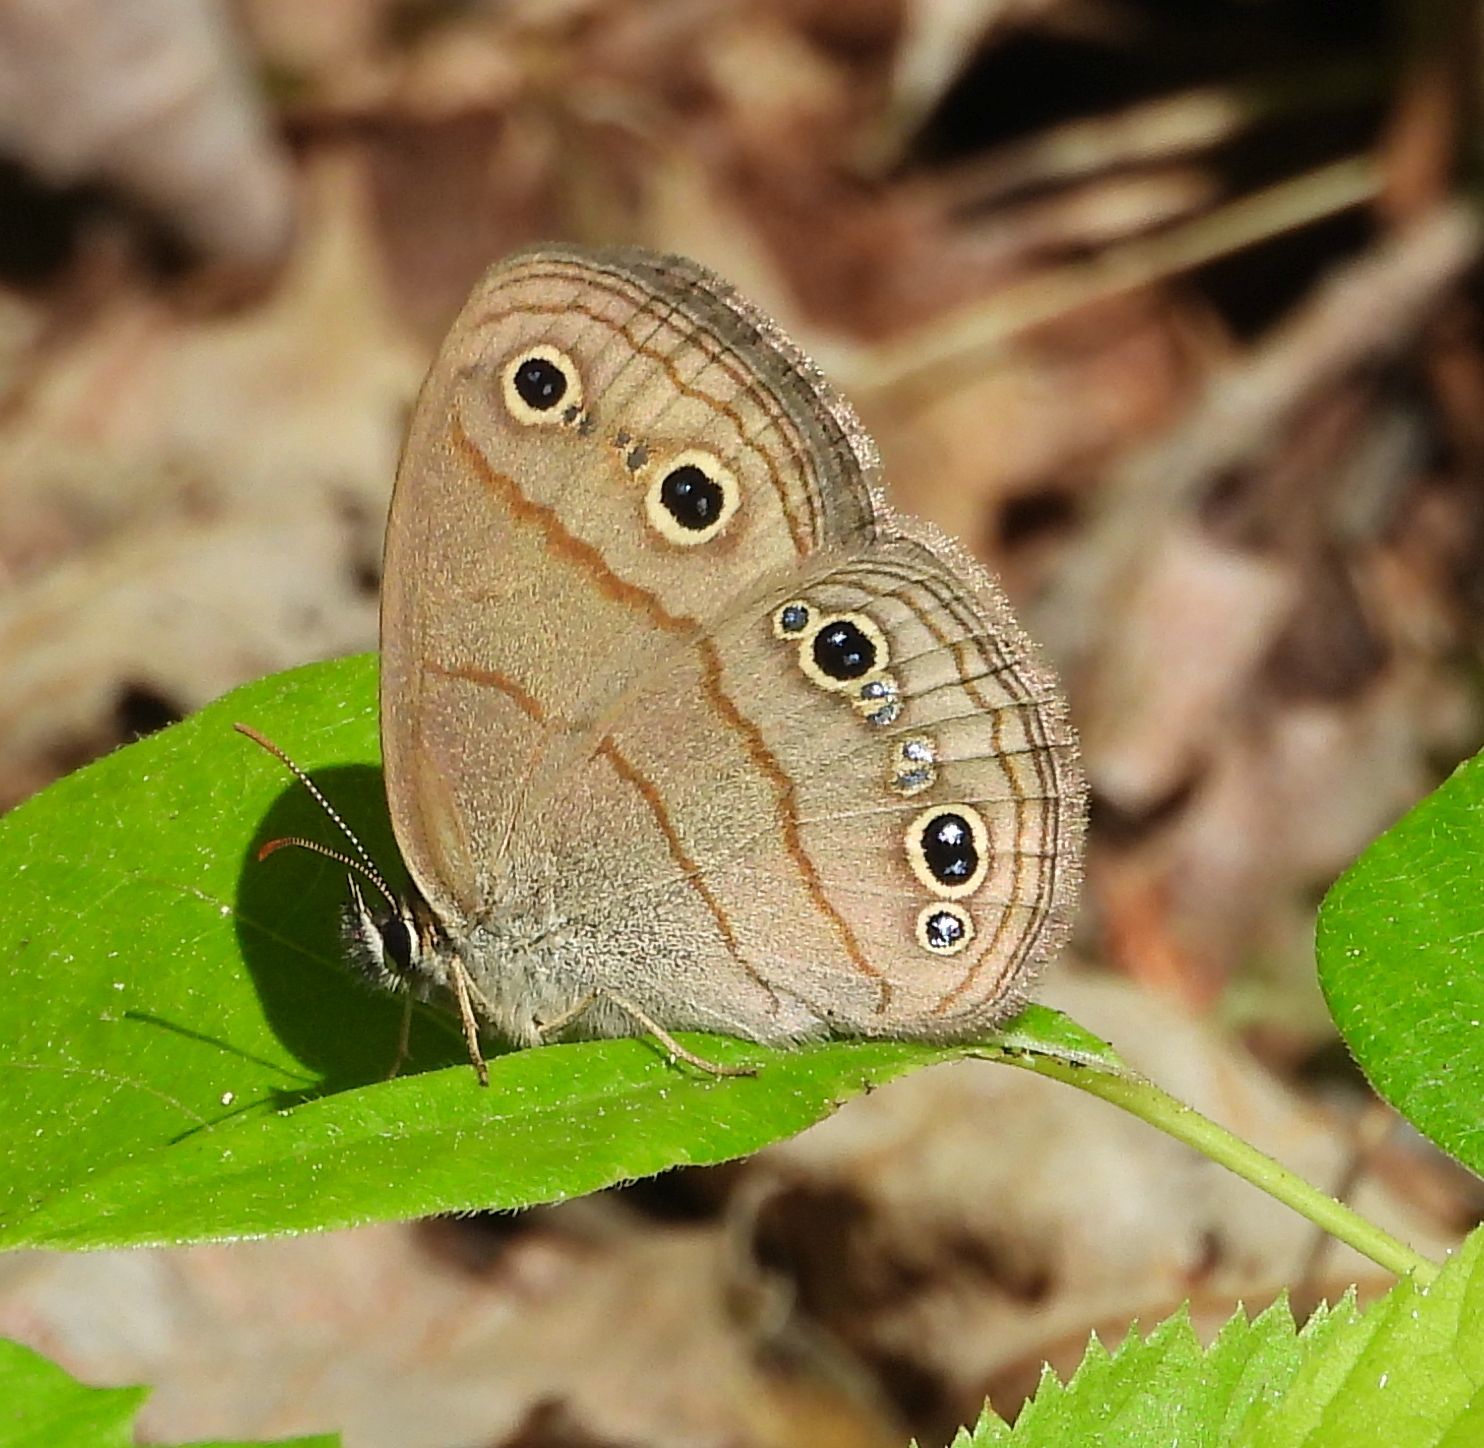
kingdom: Animalia
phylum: Arthropoda
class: Insecta
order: Lepidoptera
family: Nymphalidae
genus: Euptychia
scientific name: Euptychia cymela
